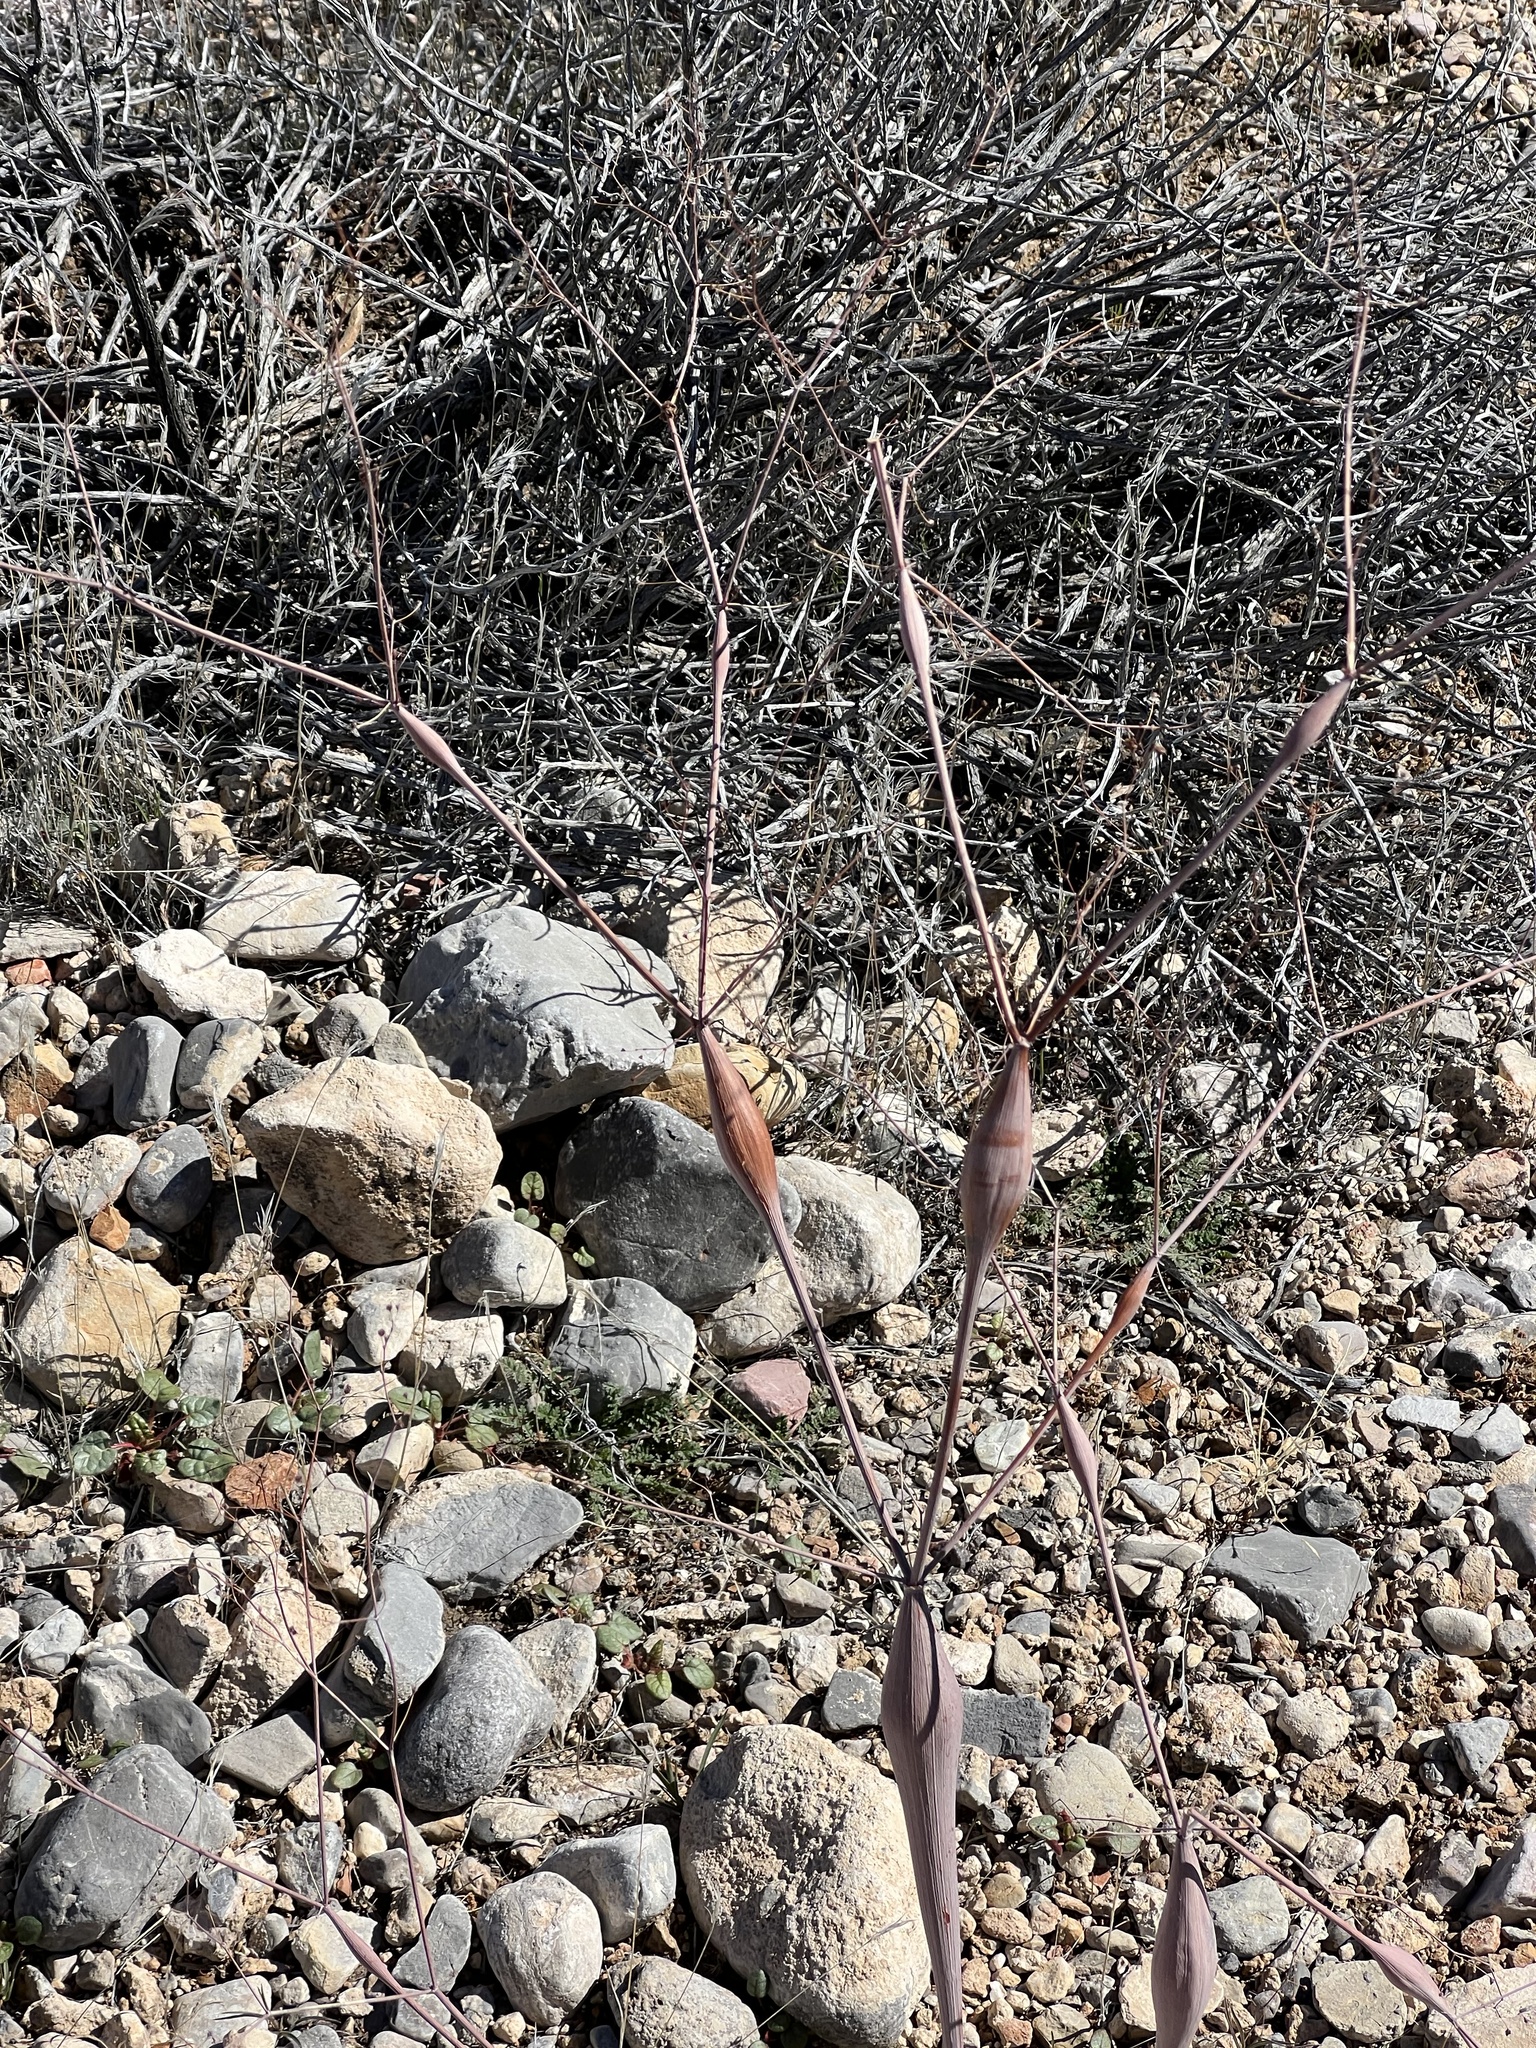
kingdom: Plantae
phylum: Tracheophyta
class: Magnoliopsida
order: Caryophyllales
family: Polygonaceae
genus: Eriogonum
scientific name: Eriogonum inflatum
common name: Desert trumpet
